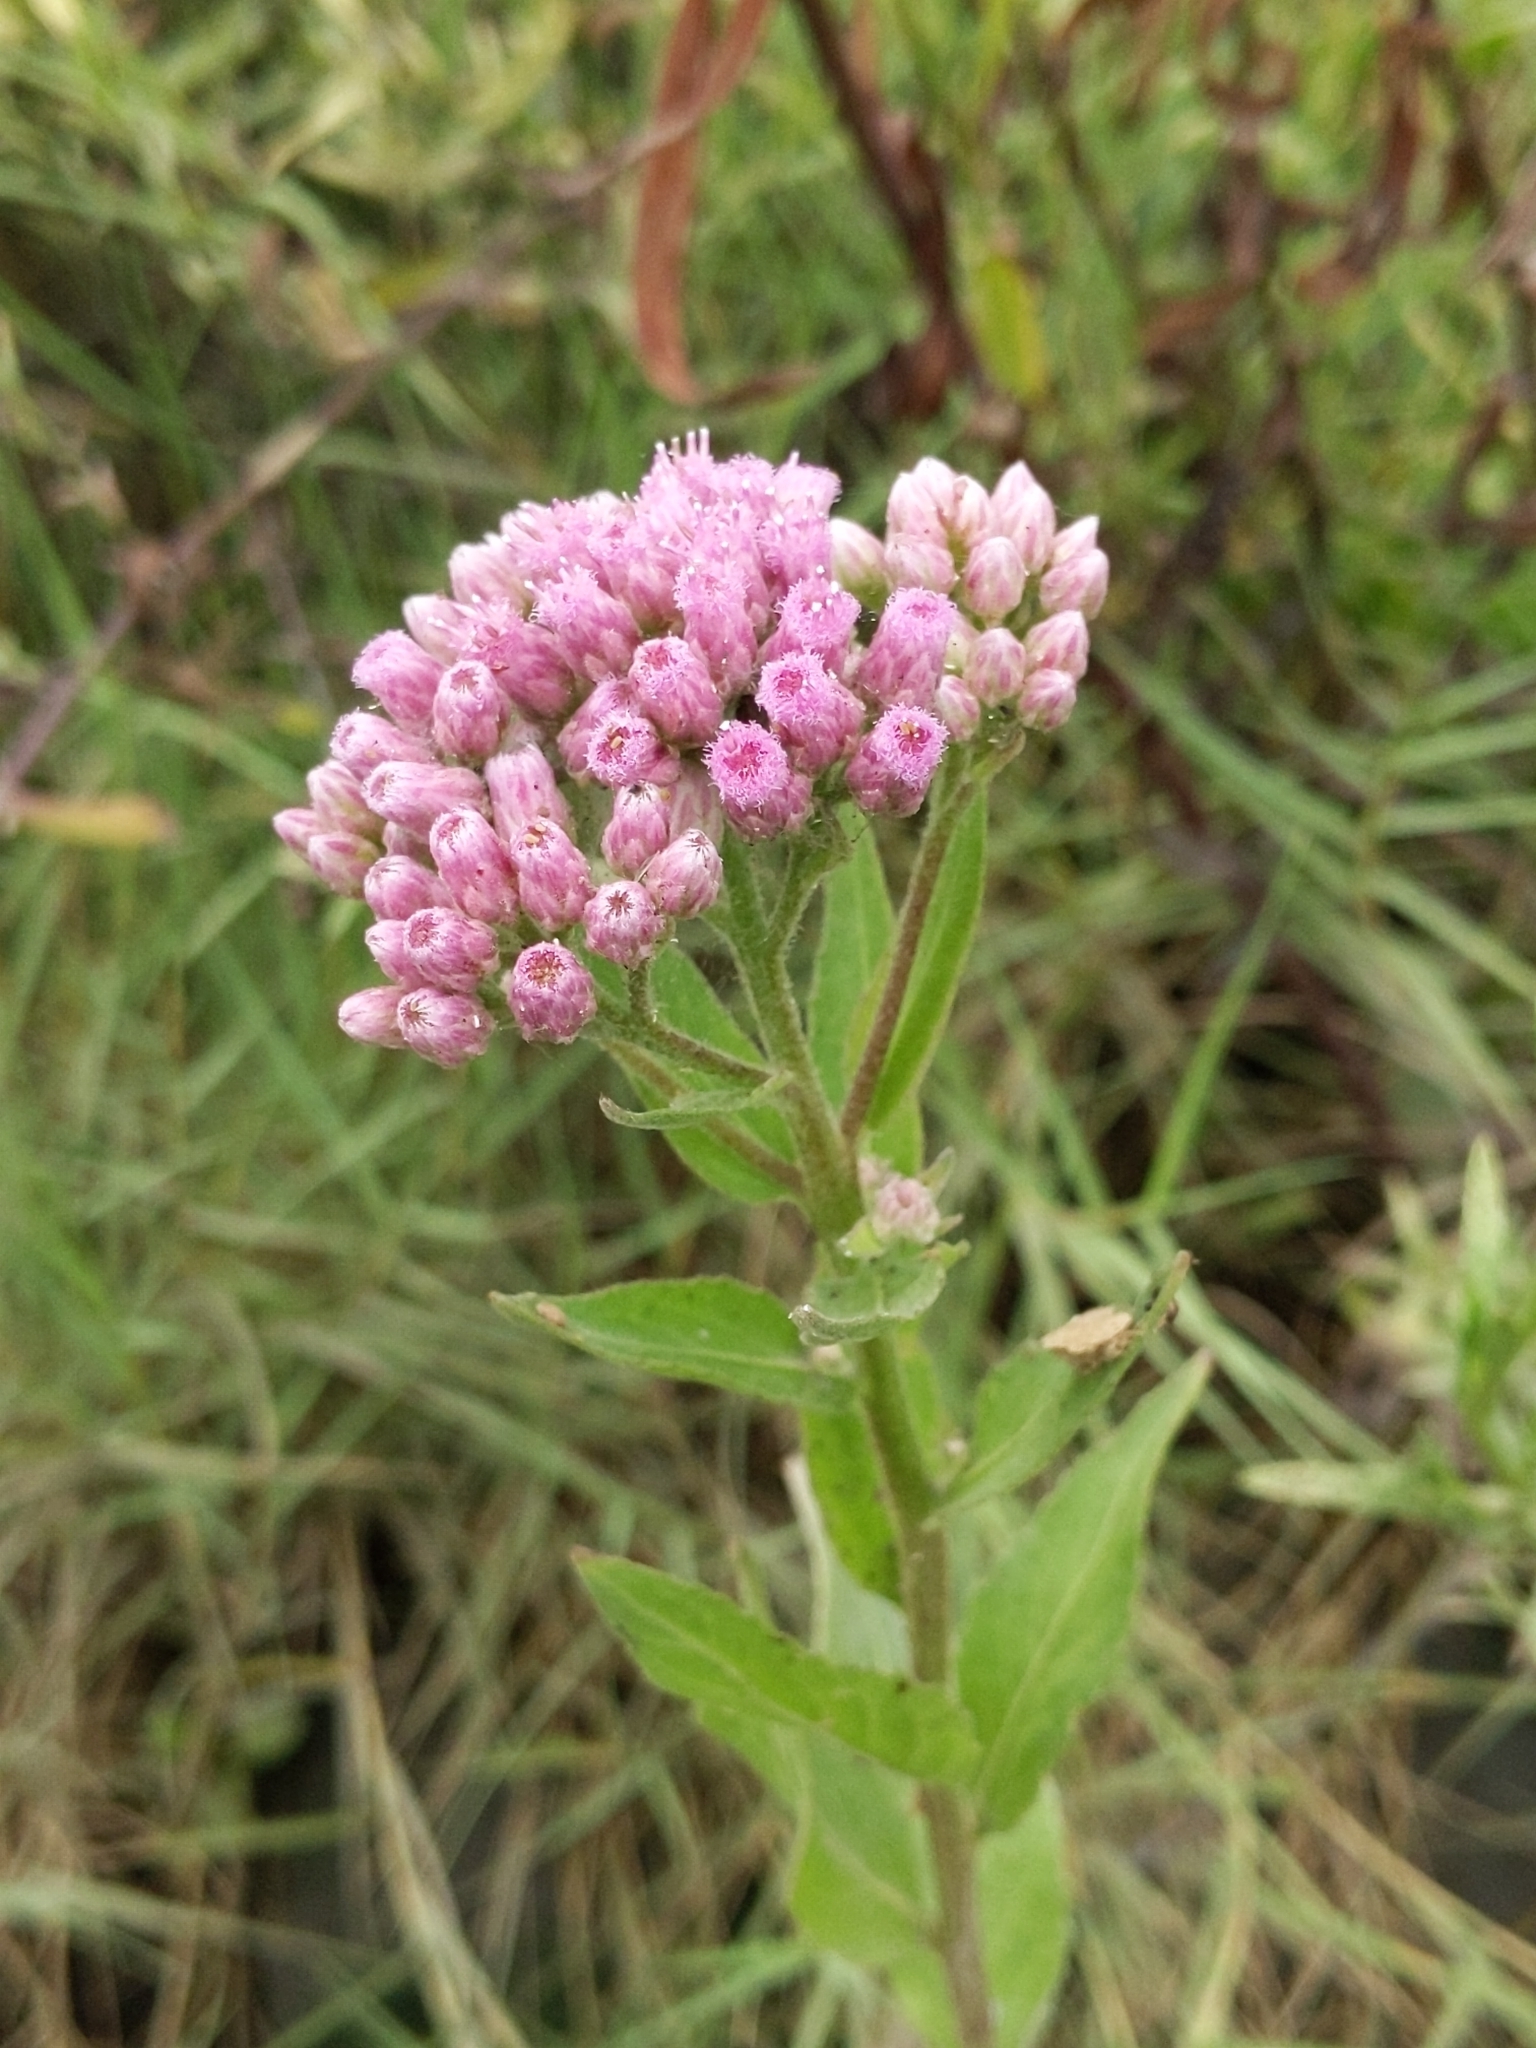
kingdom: Plantae
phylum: Tracheophyta
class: Magnoliopsida
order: Asterales
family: Asteraceae
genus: Pluchea
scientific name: Pluchea odorata
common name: Saltmarsh fleabane
